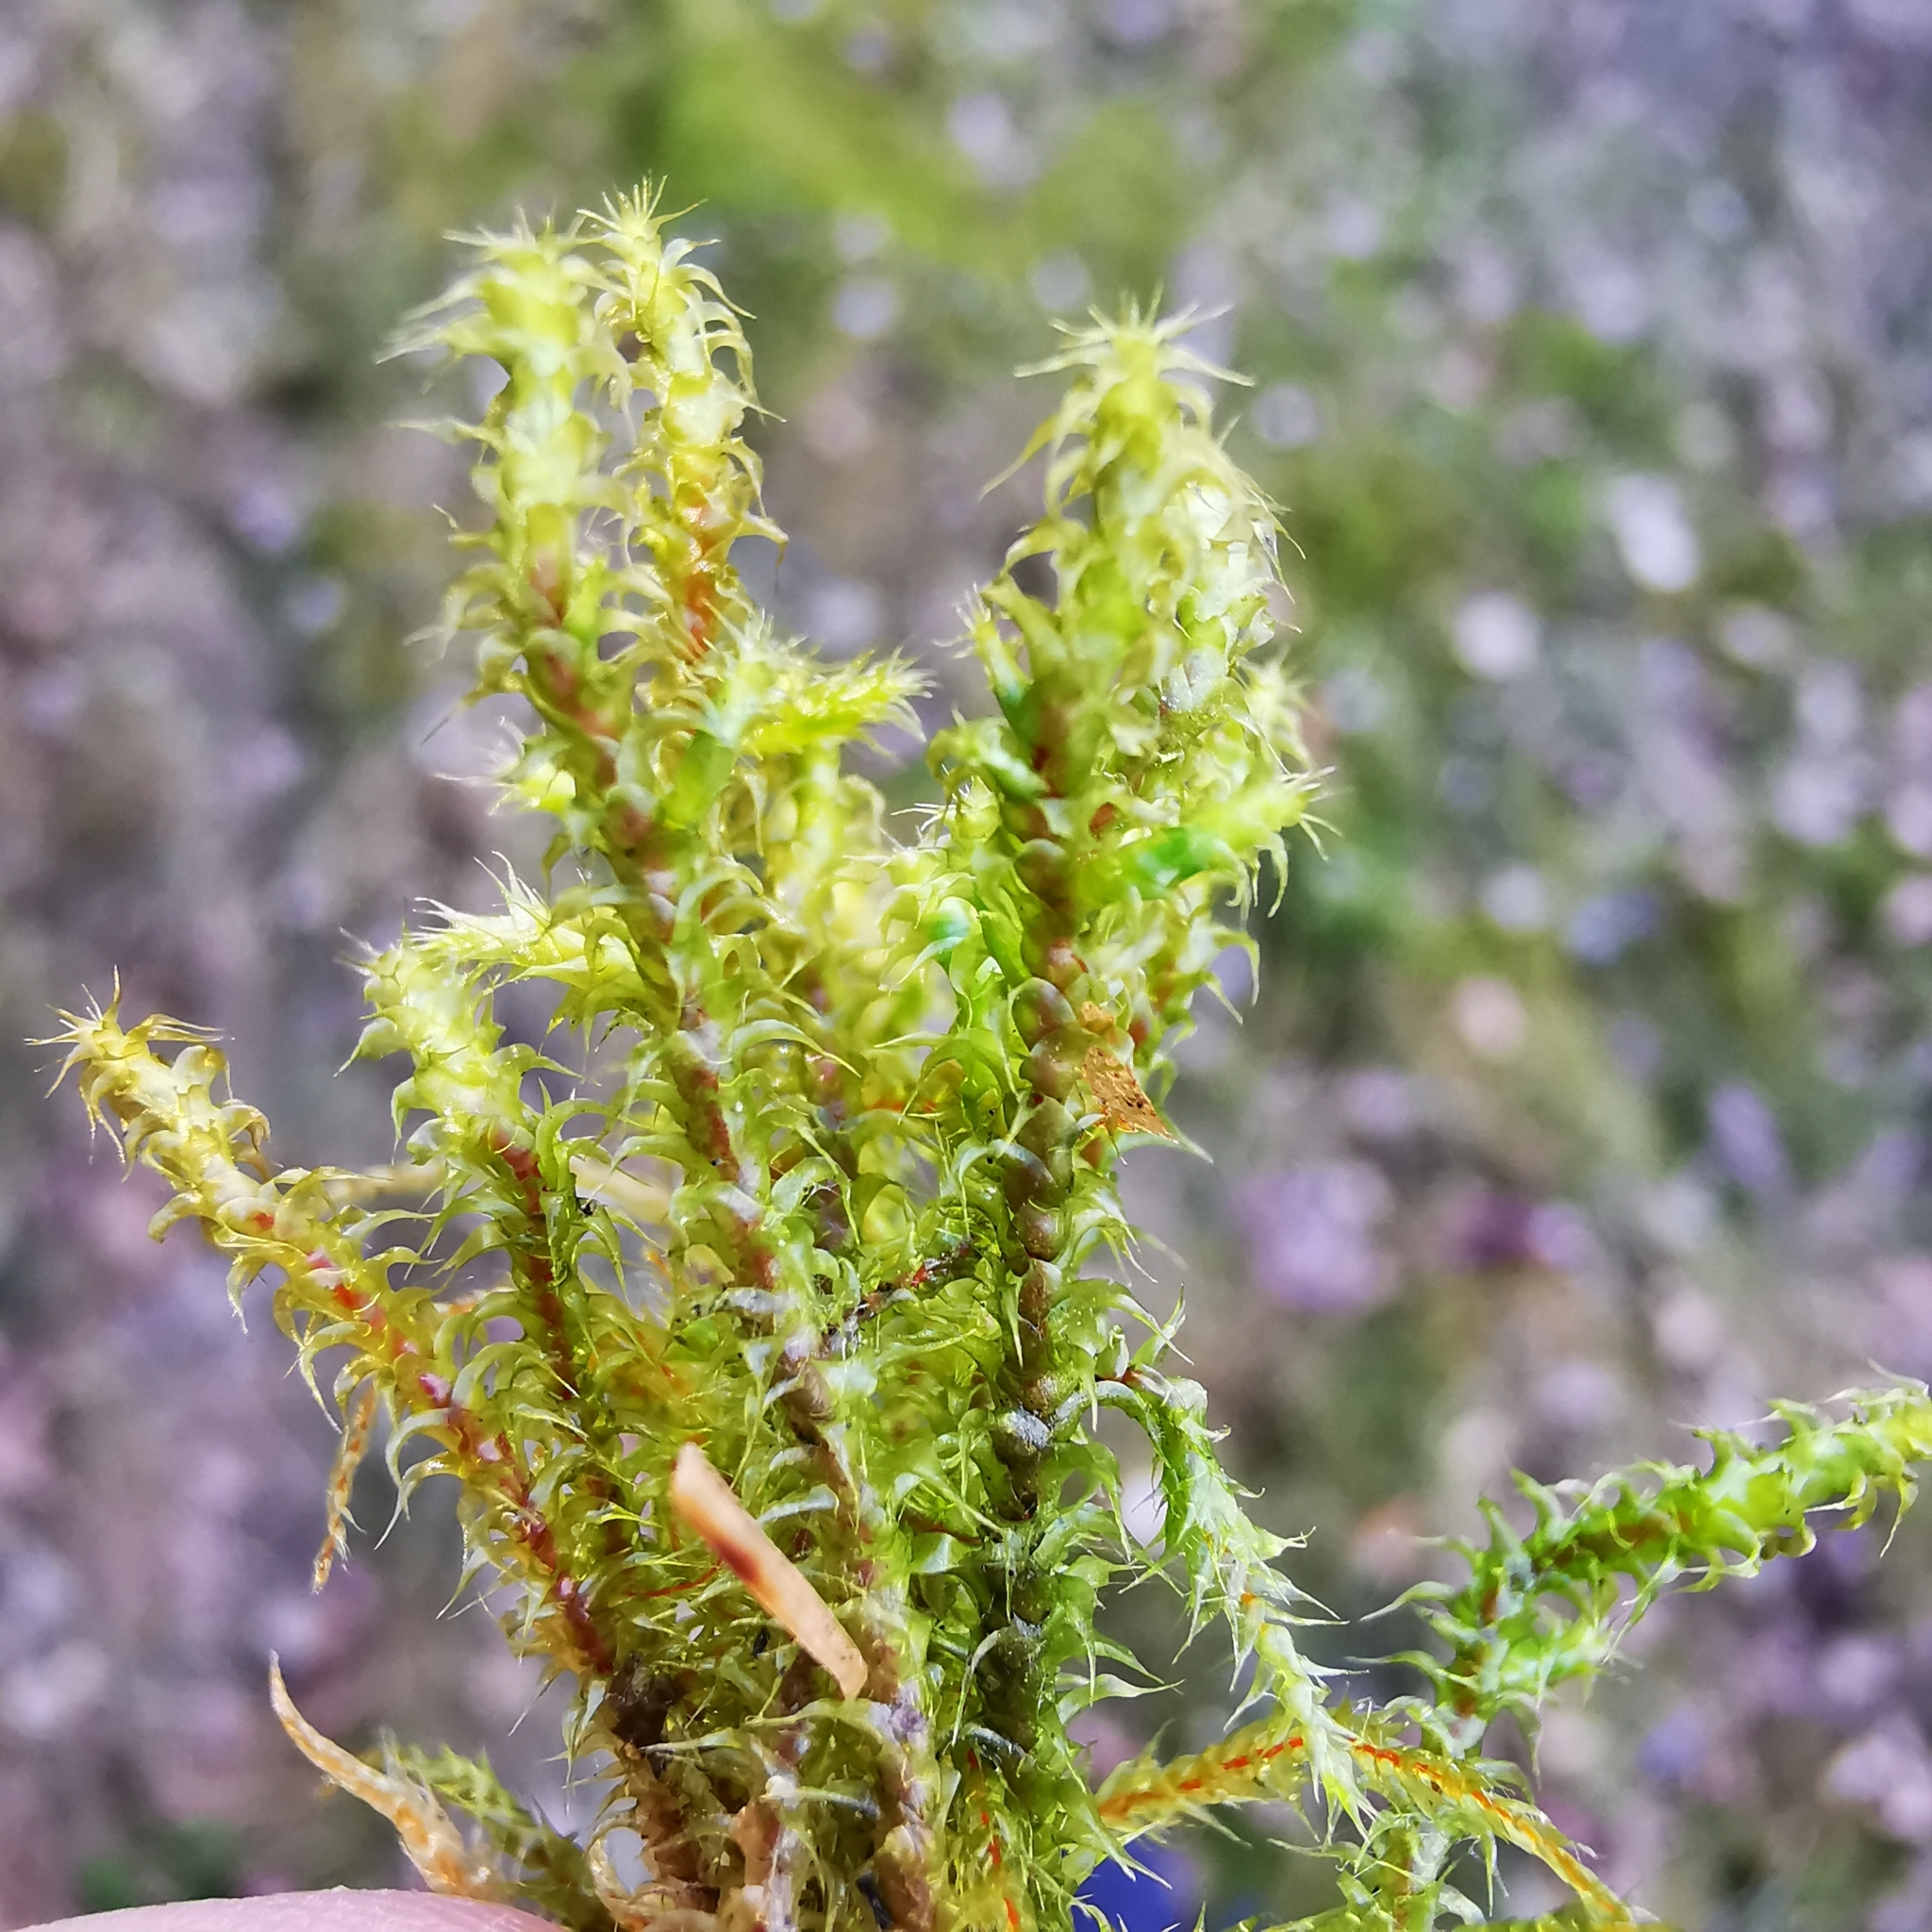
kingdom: Plantae
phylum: Bryophyta
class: Bryopsida
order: Hypnales
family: Hylocomiaceae
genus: Rhytidiadelphus
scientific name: Rhytidiadelphus squarrosus
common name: Springy turf-moss
